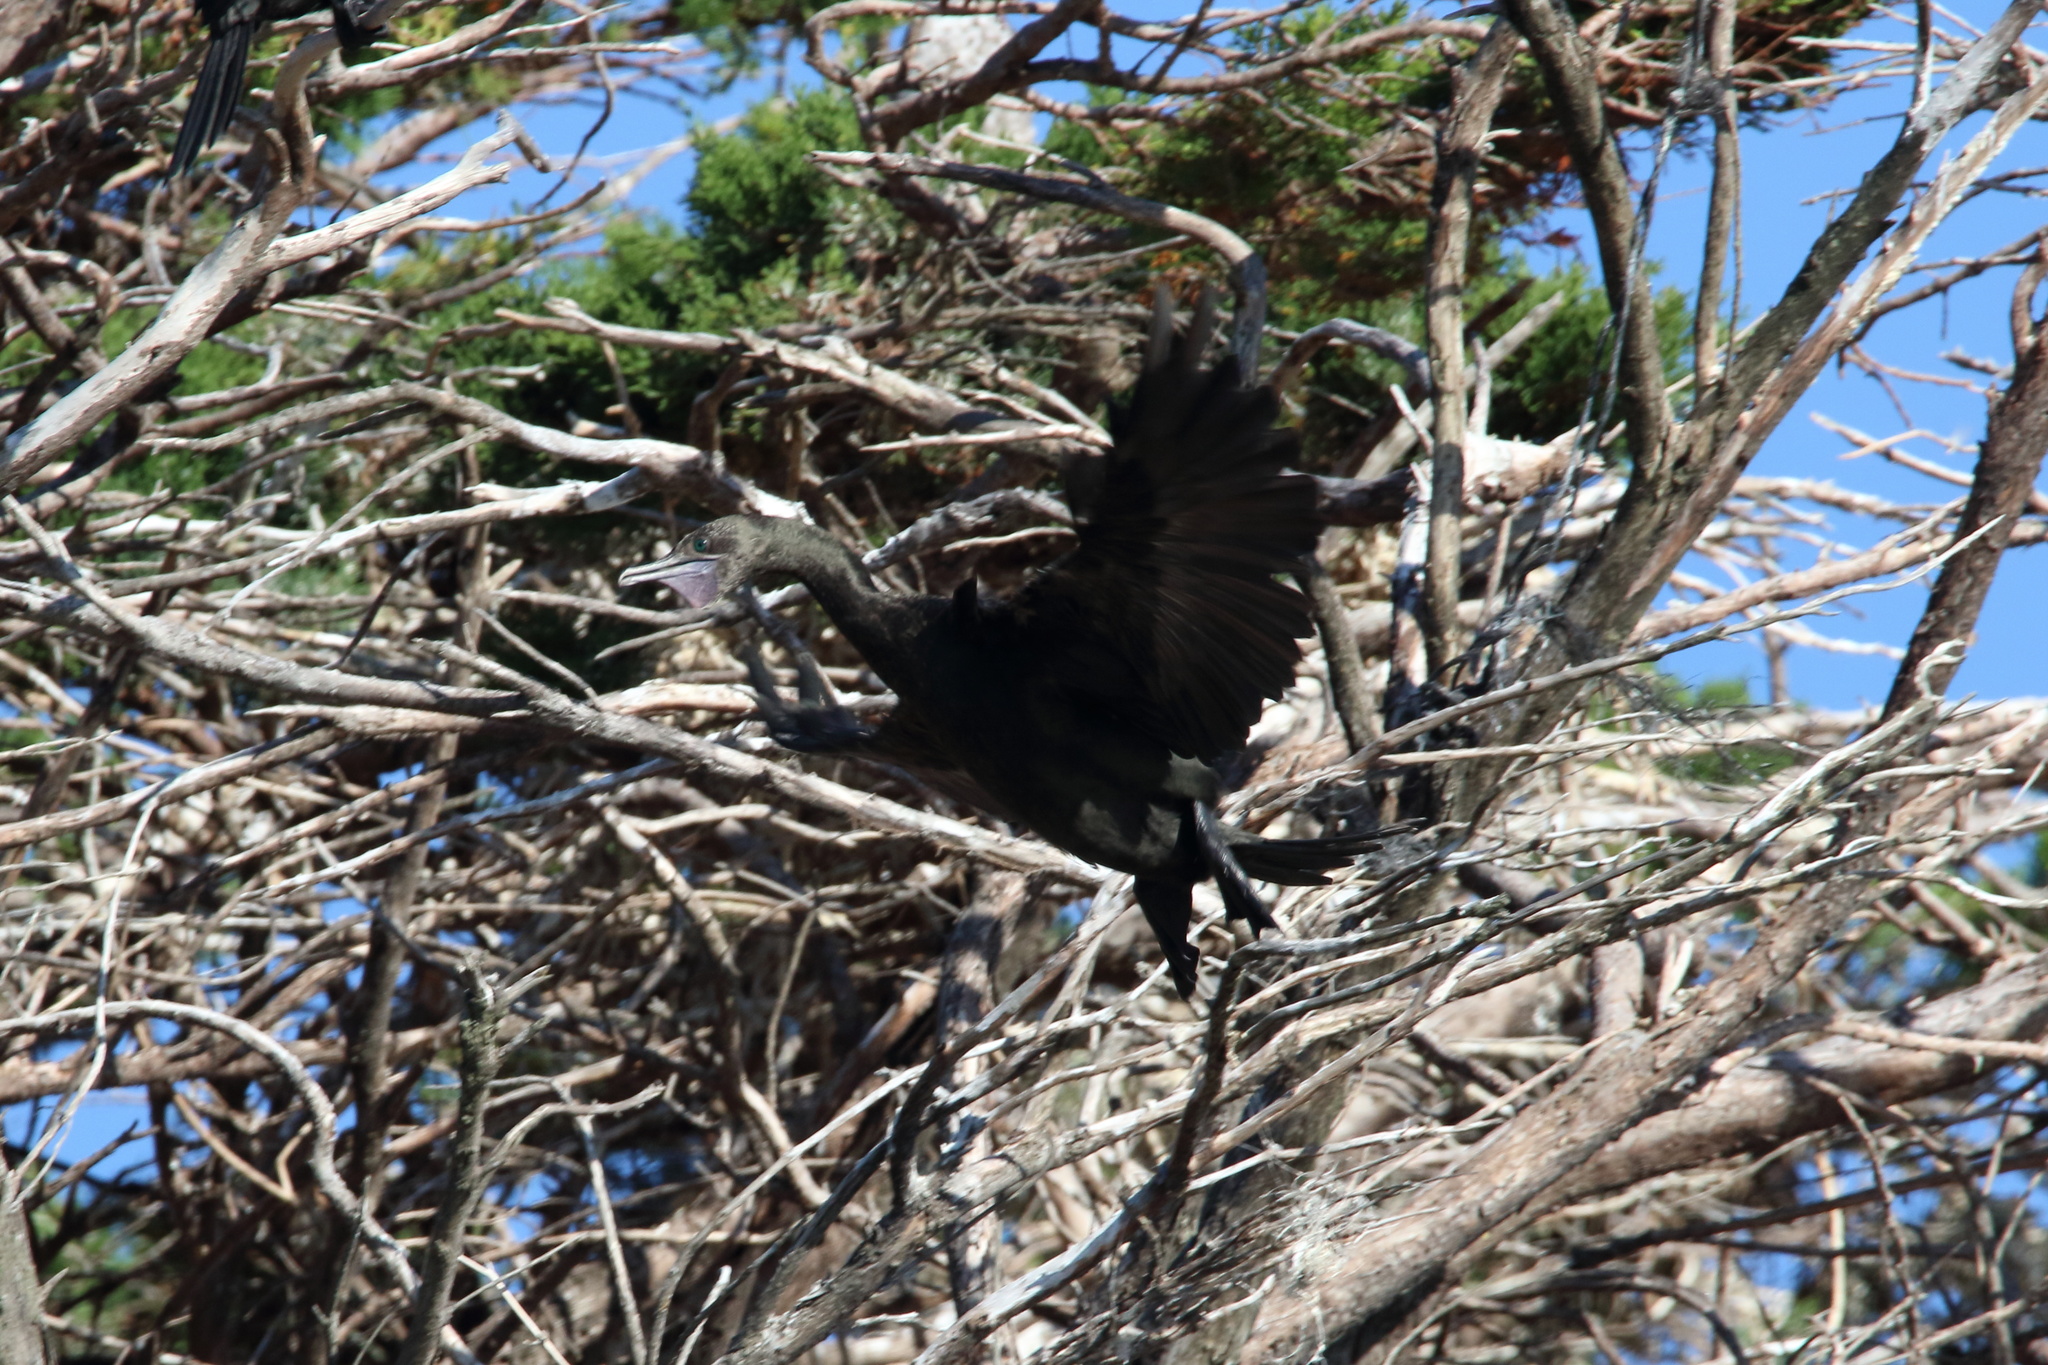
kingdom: Animalia
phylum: Chordata
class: Aves
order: Suliformes
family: Phalacrocoracidae
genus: Phalacrocorax
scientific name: Phalacrocorax sulcirostris
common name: Little black cormorant
